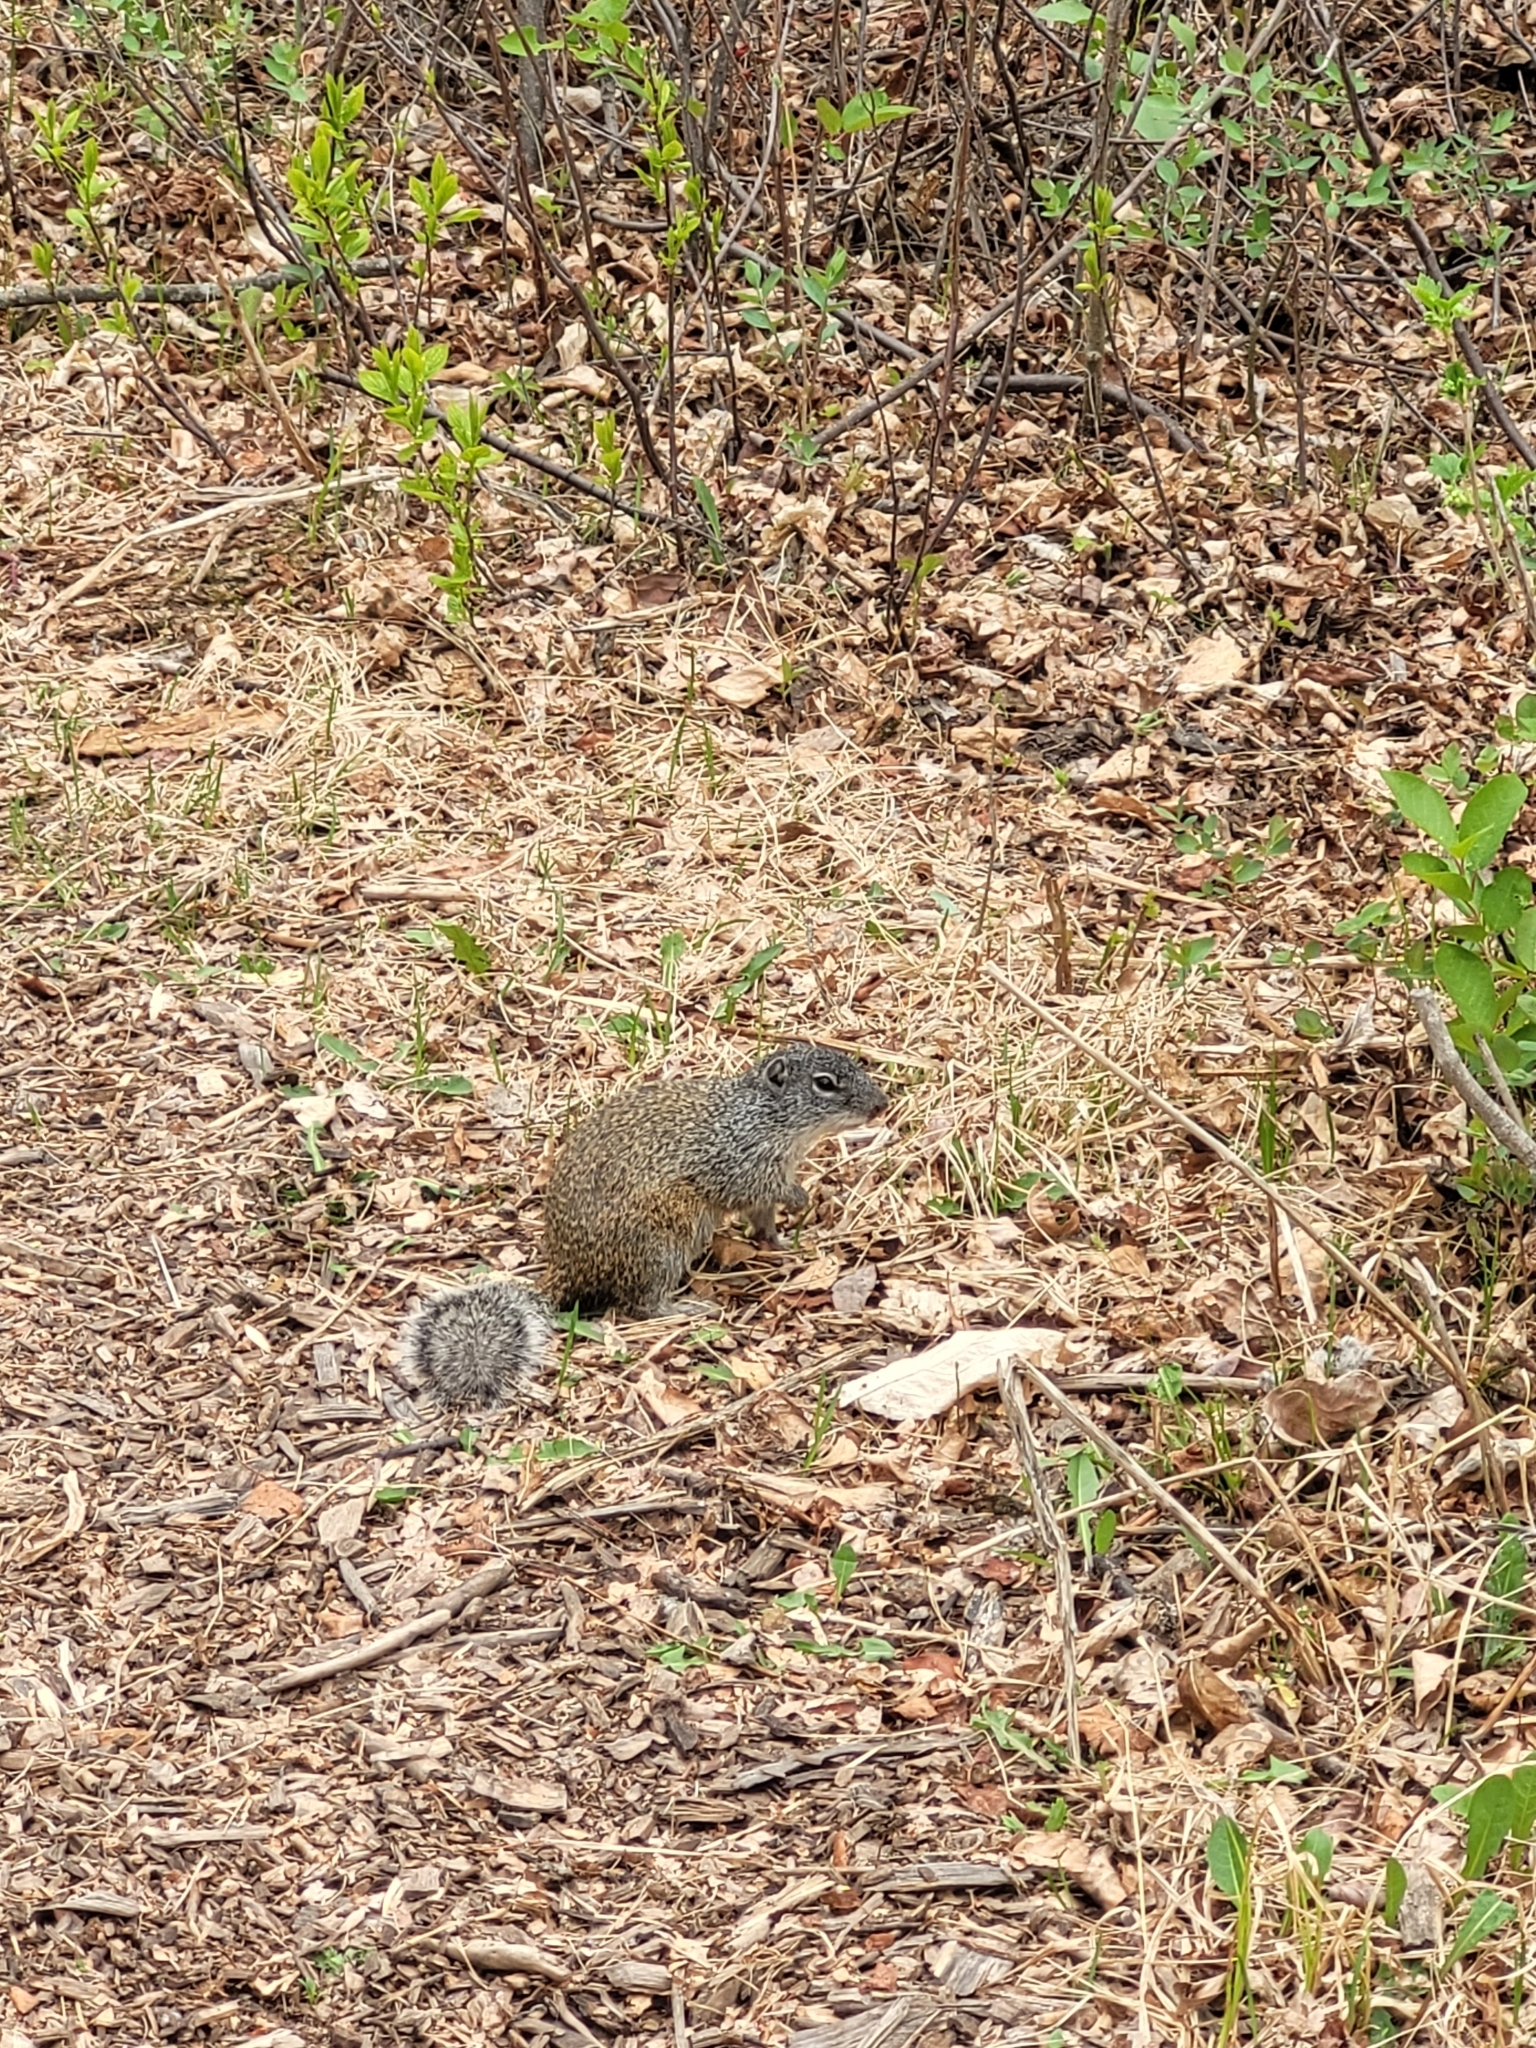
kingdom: Animalia
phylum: Chordata
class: Mammalia
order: Rodentia
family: Sciuridae
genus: Poliocitellus
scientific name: Poliocitellus franklinii
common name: Franklin's ground squirrel
